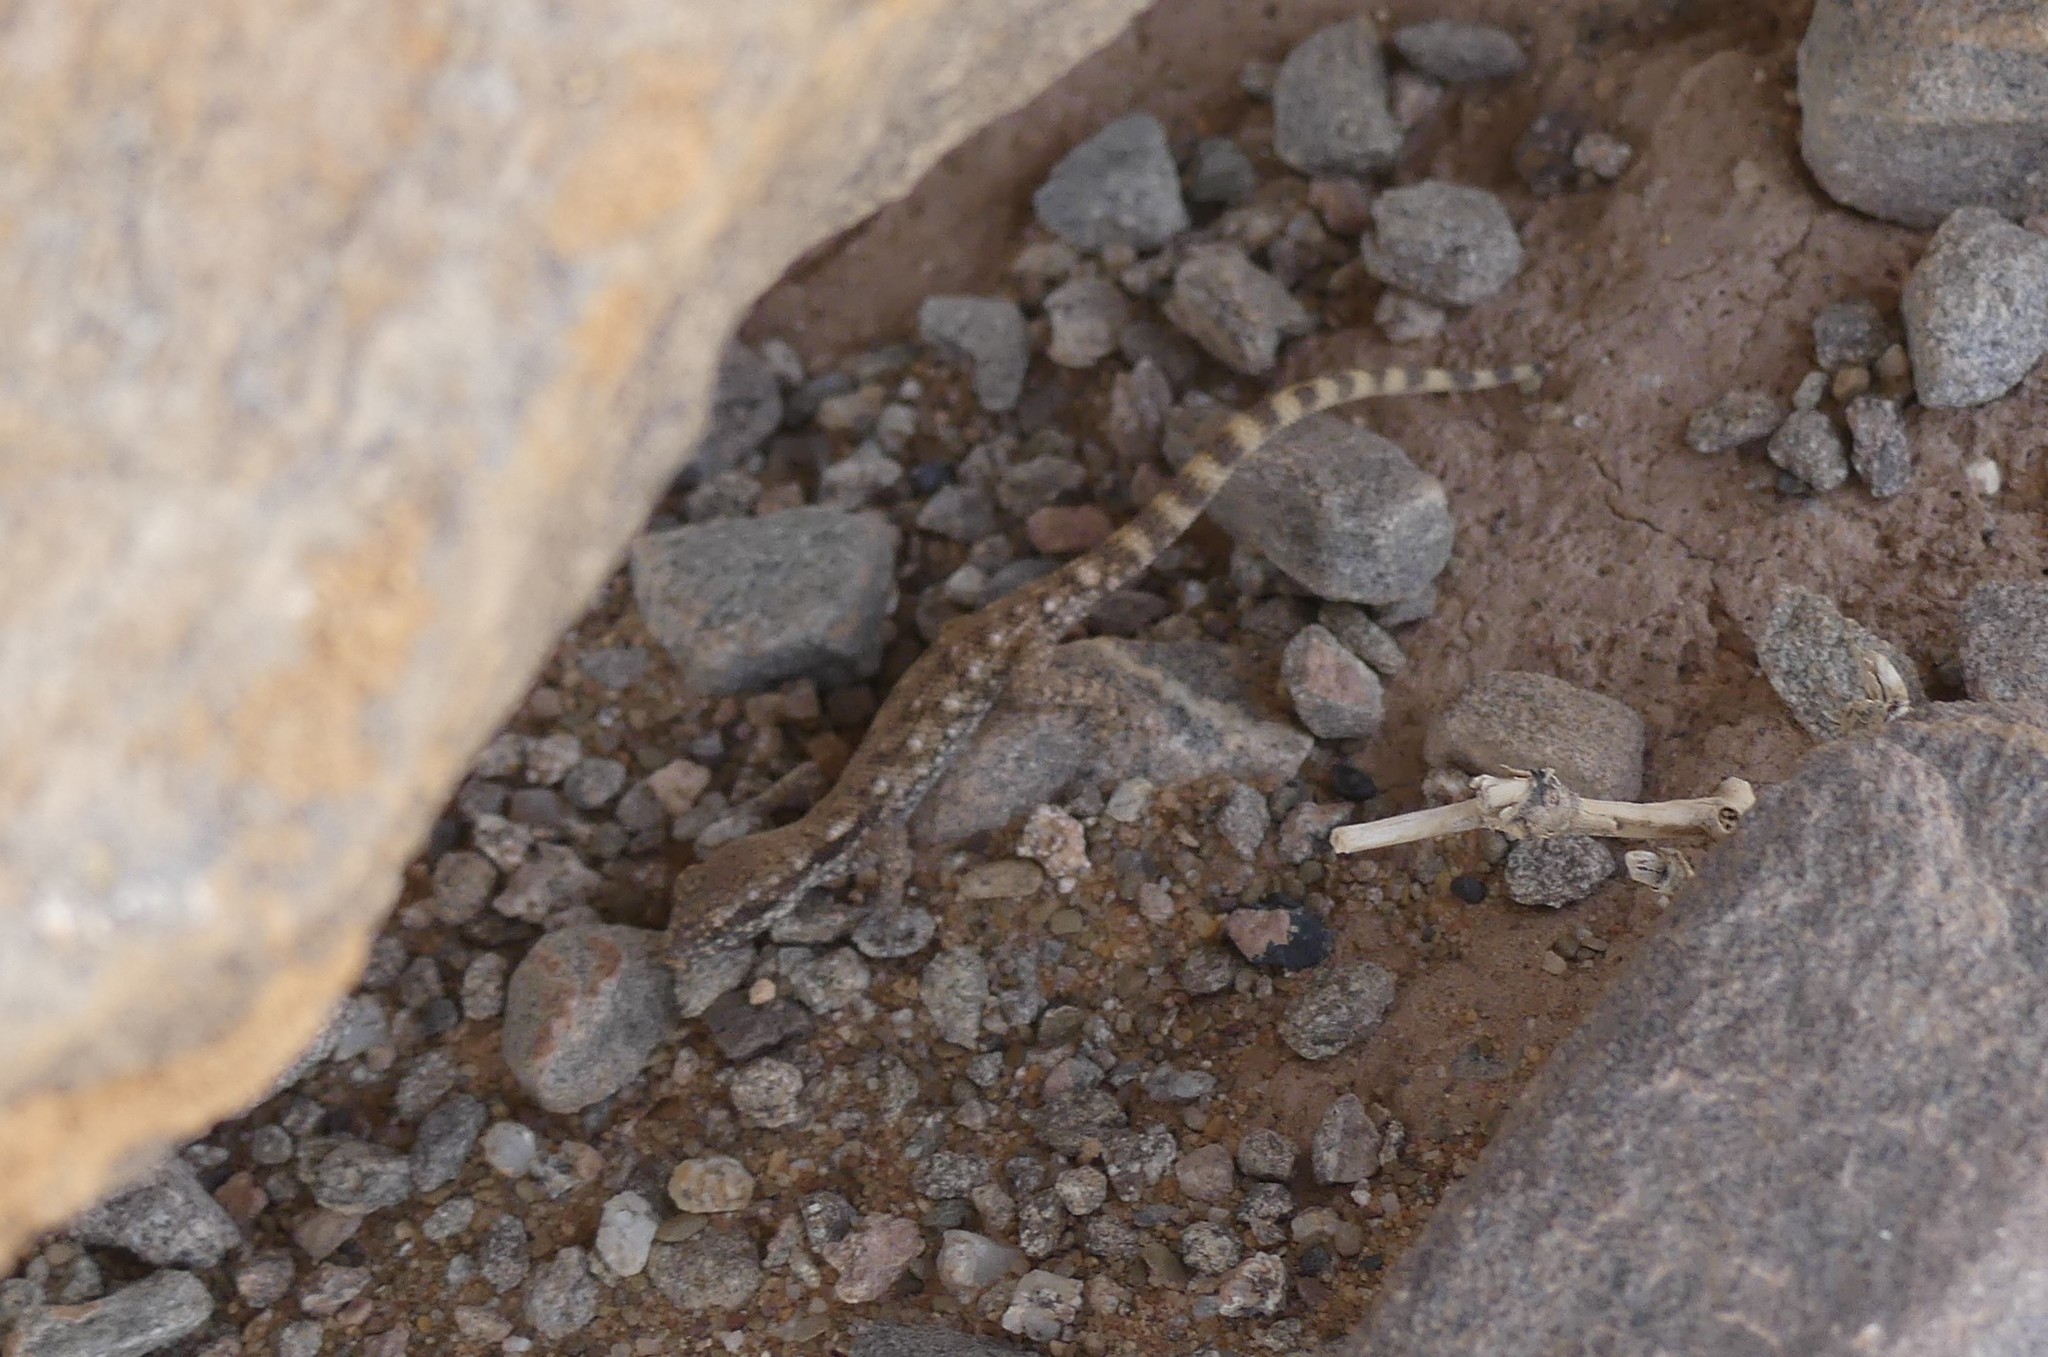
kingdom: Animalia
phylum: Chordata
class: Squamata
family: Gekkonidae
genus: Tropiocolotes
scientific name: Tropiocolotes algericus
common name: Algerian sand gecko
